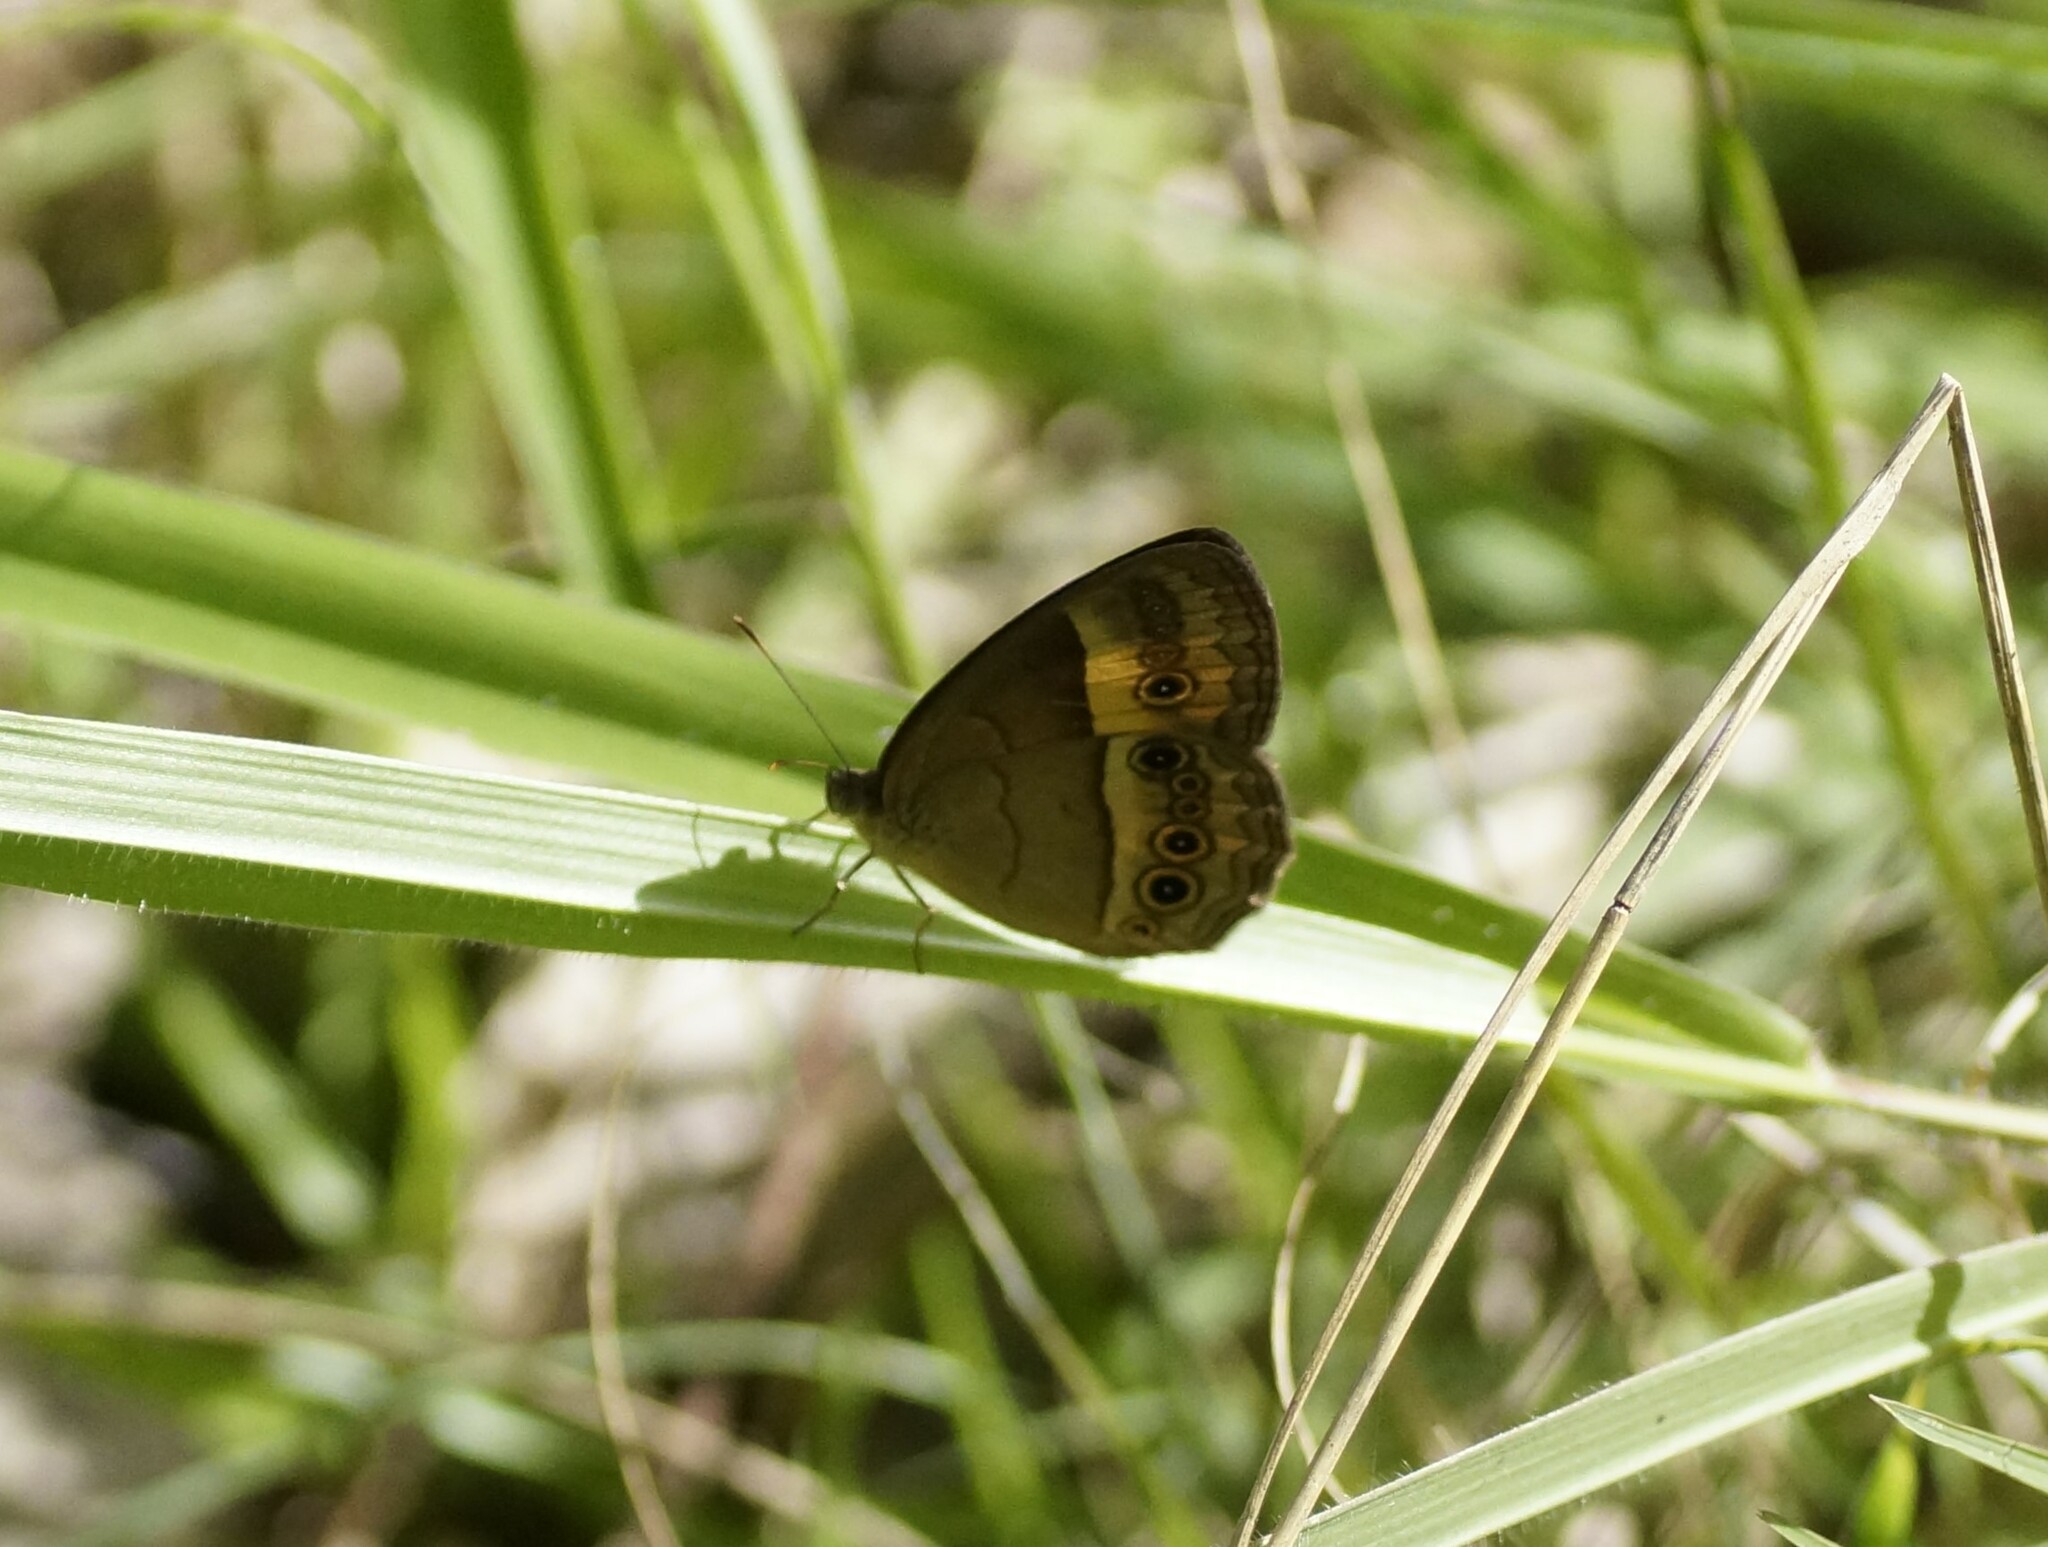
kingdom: Animalia
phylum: Arthropoda
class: Insecta
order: Lepidoptera
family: Nymphalidae
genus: Mycalesis
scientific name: Mycalesis terminus
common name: Orange bushbrown
